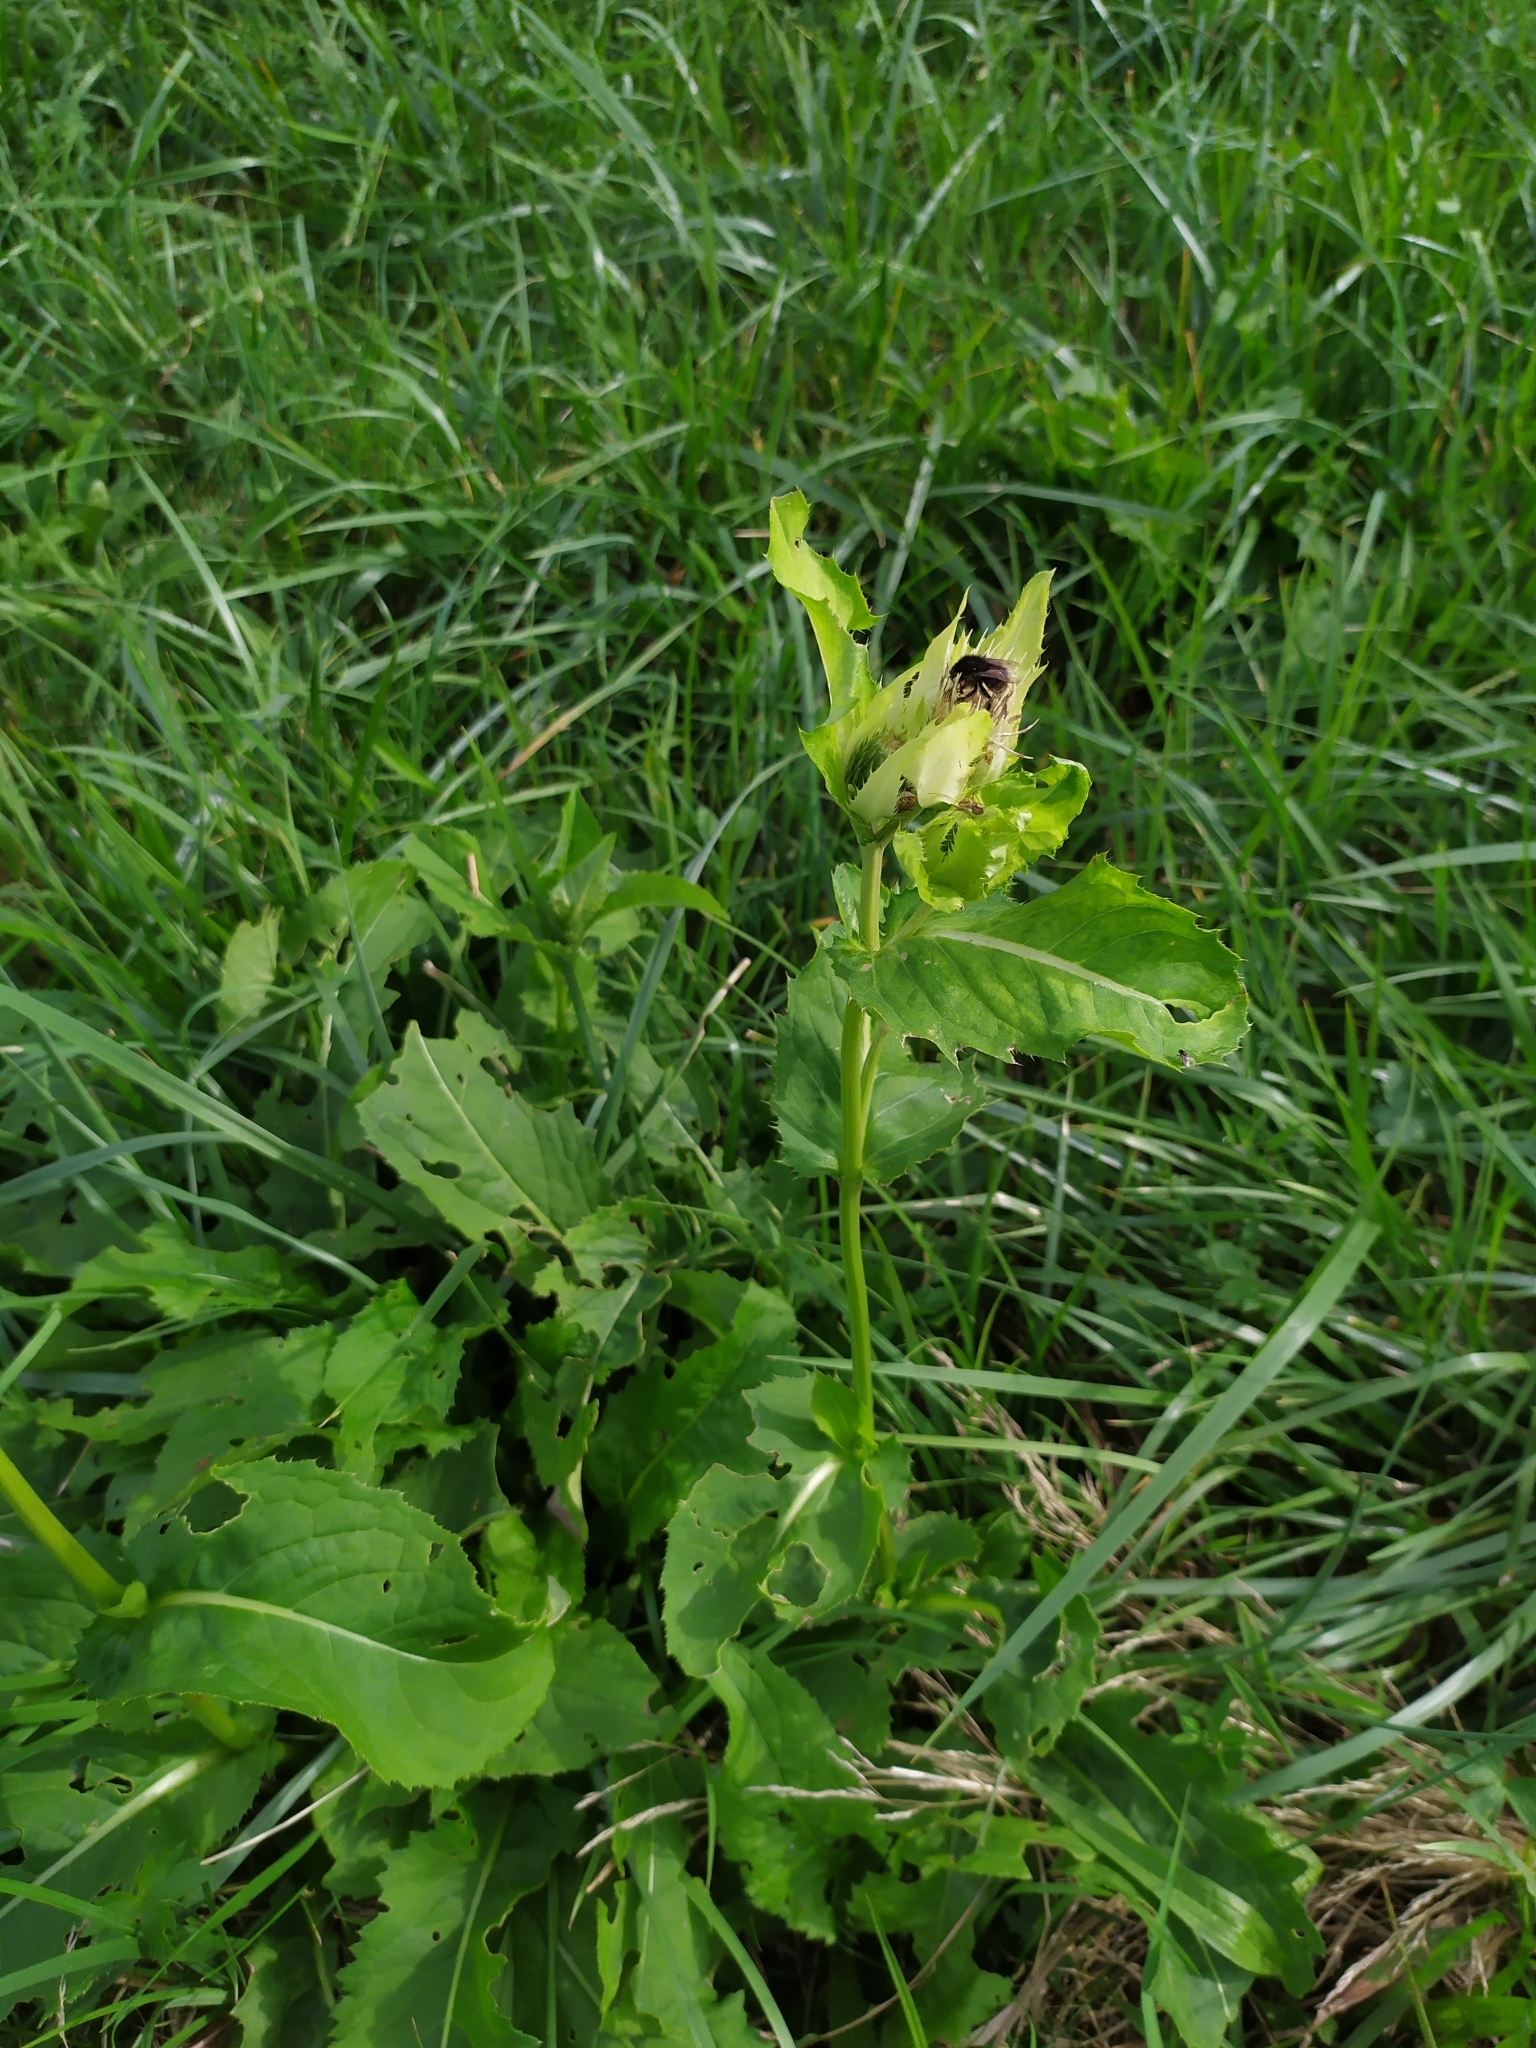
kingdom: Plantae
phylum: Tracheophyta
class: Magnoliopsida
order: Asterales
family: Asteraceae
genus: Cirsium
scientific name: Cirsium oleraceum
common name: Cabbage thistle
